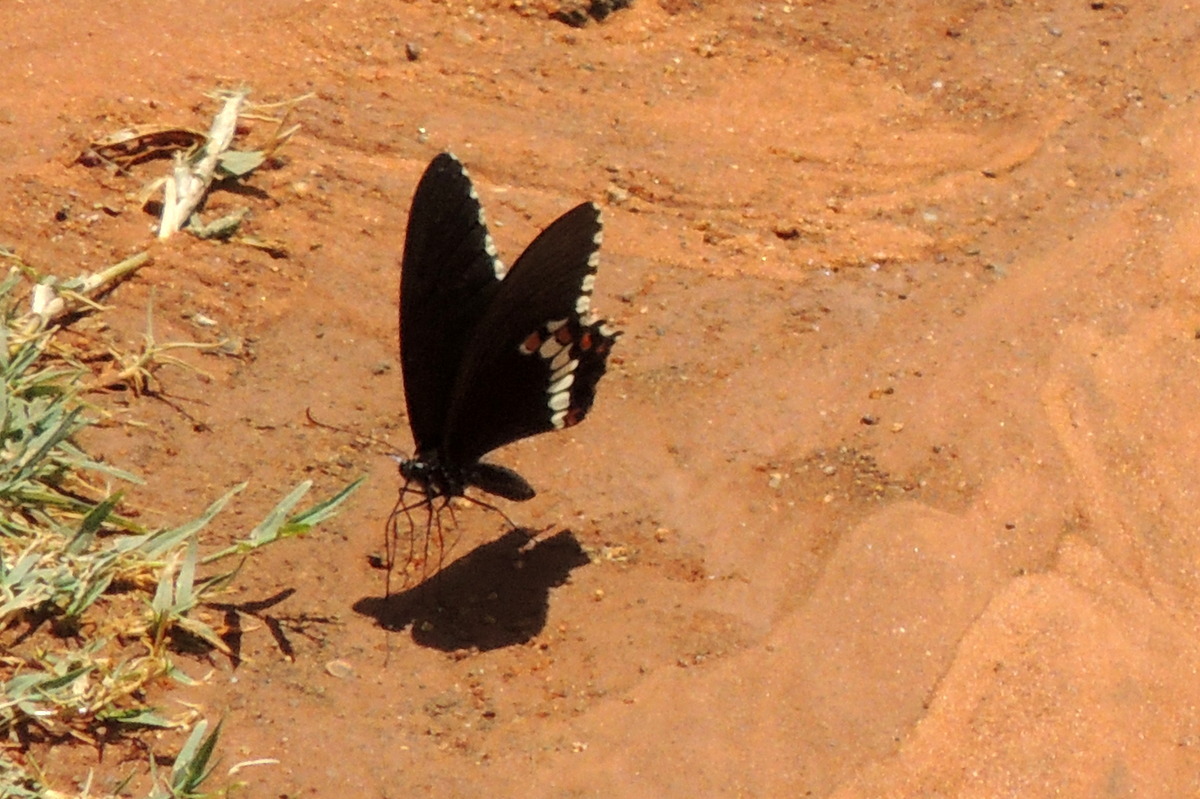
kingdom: Animalia
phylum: Arthropoda
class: Insecta
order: Lepidoptera
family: Papilionidae
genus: Papilio
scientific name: Papilio polytes
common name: Common mormon
